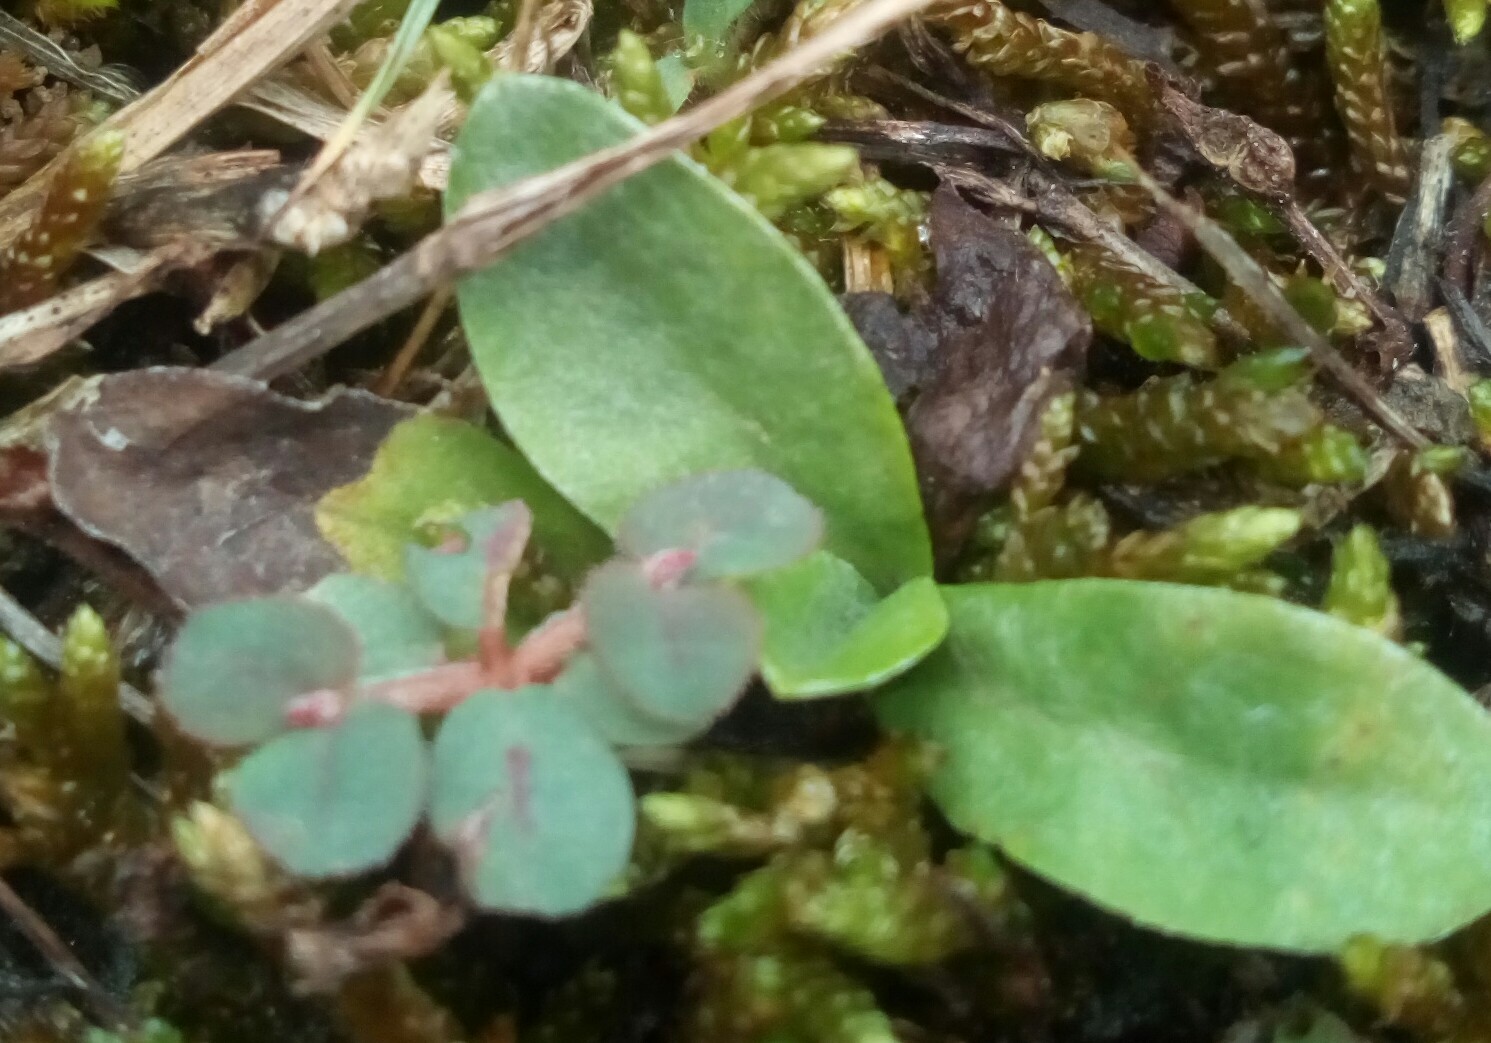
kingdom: Plantae
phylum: Tracheophyta
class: Magnoliopsida
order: Malpighiales
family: Euphorbiaceae
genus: Euphorbia
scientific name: Euphorbia maculata
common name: Spotted spurge
